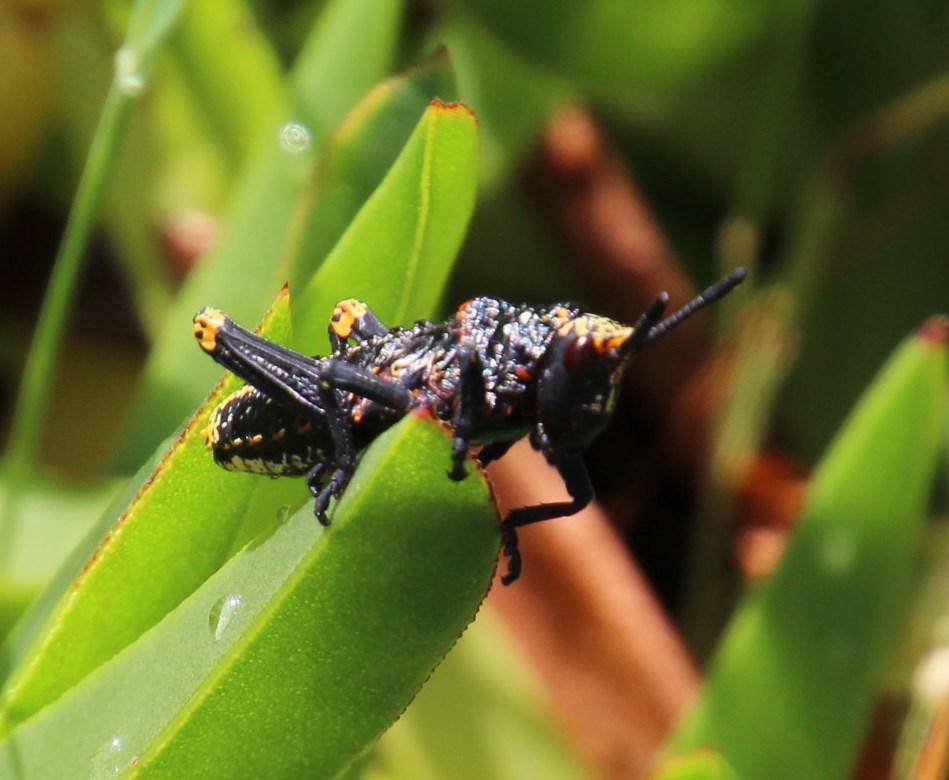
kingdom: Animalia
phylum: Arthropoda
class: Insecta
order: Orthoptera
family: Pyrgomorphidae
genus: Dictyophorus
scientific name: Dictyophorus spumans
